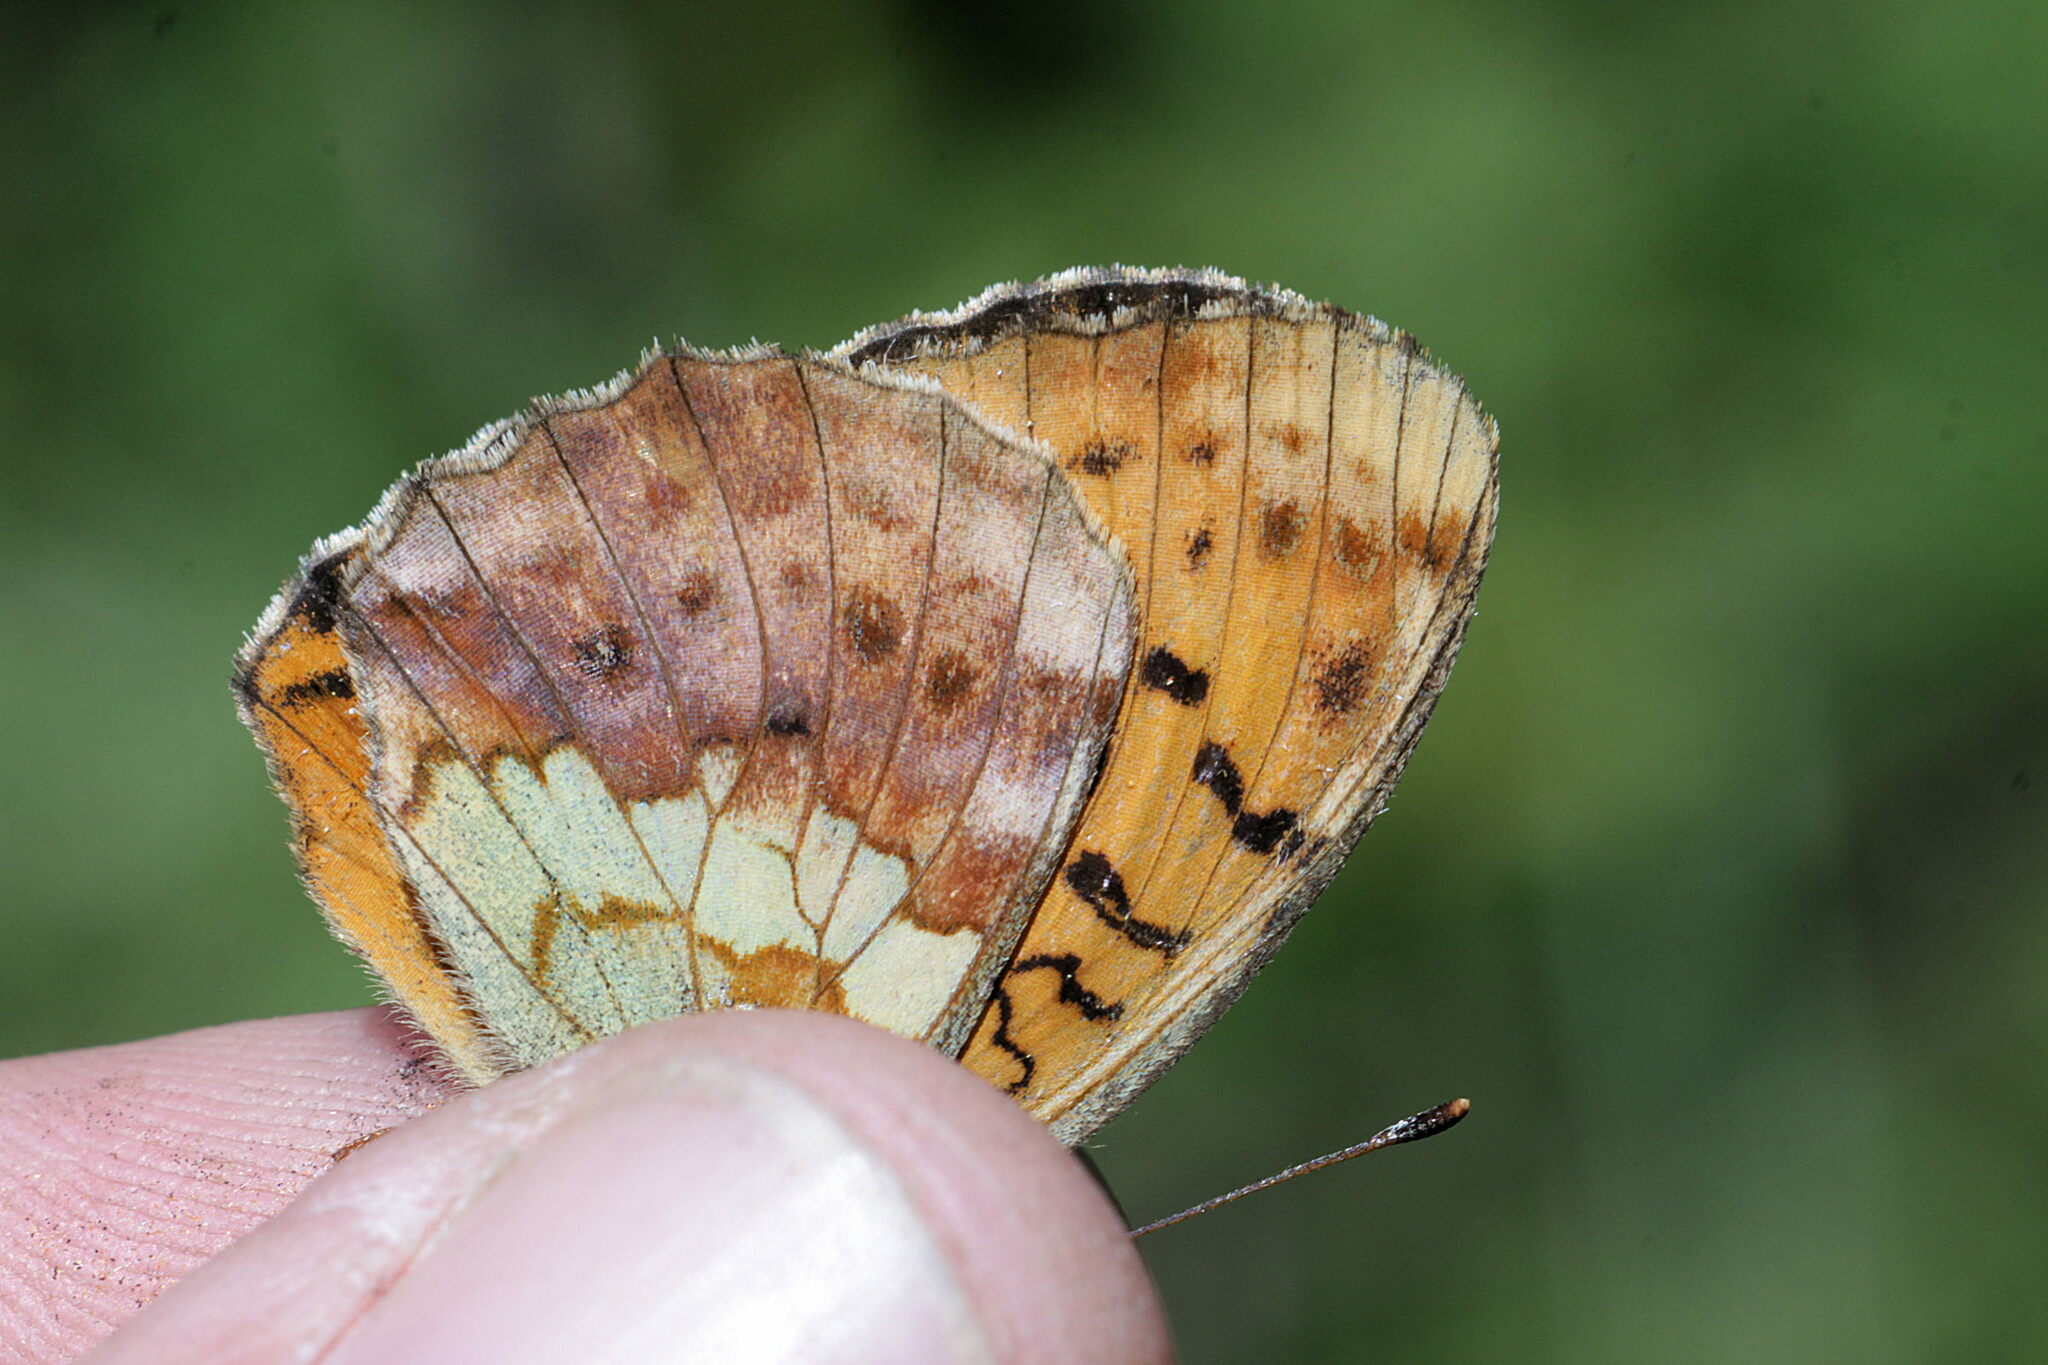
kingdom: Animalia
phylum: Arthropoda
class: Insecta
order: Lepidoptera
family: Nymphalidae
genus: Brenthis
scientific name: Brenthis daphne
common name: Marbled fritillary
